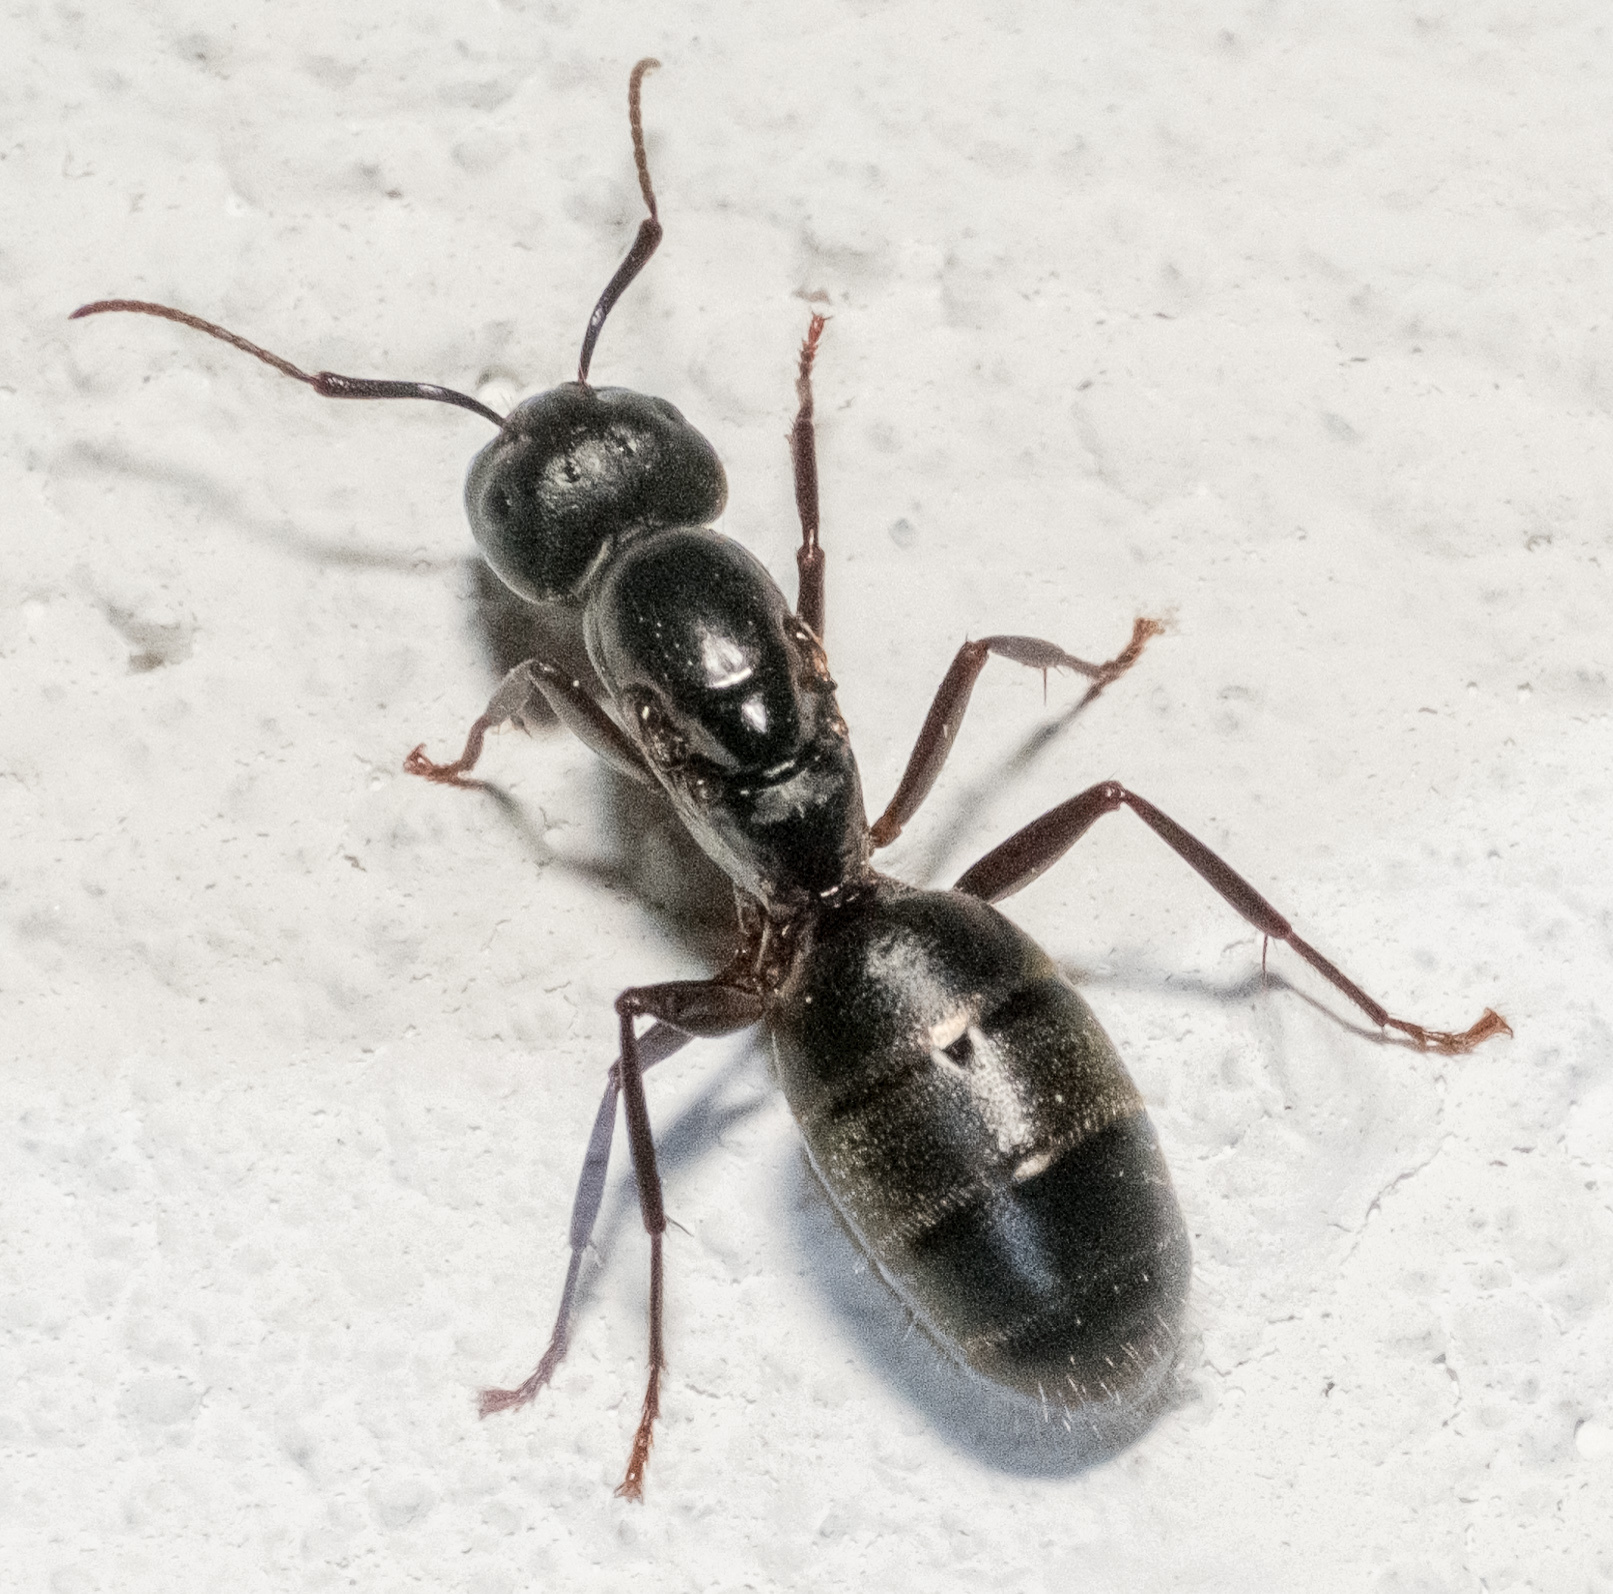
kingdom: Animalia
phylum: Arthropoda
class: Insecta
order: Hymenoptera
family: Formicidae
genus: Camponotus
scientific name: Camponotus pennsylvanicus
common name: Black carpenter ant
